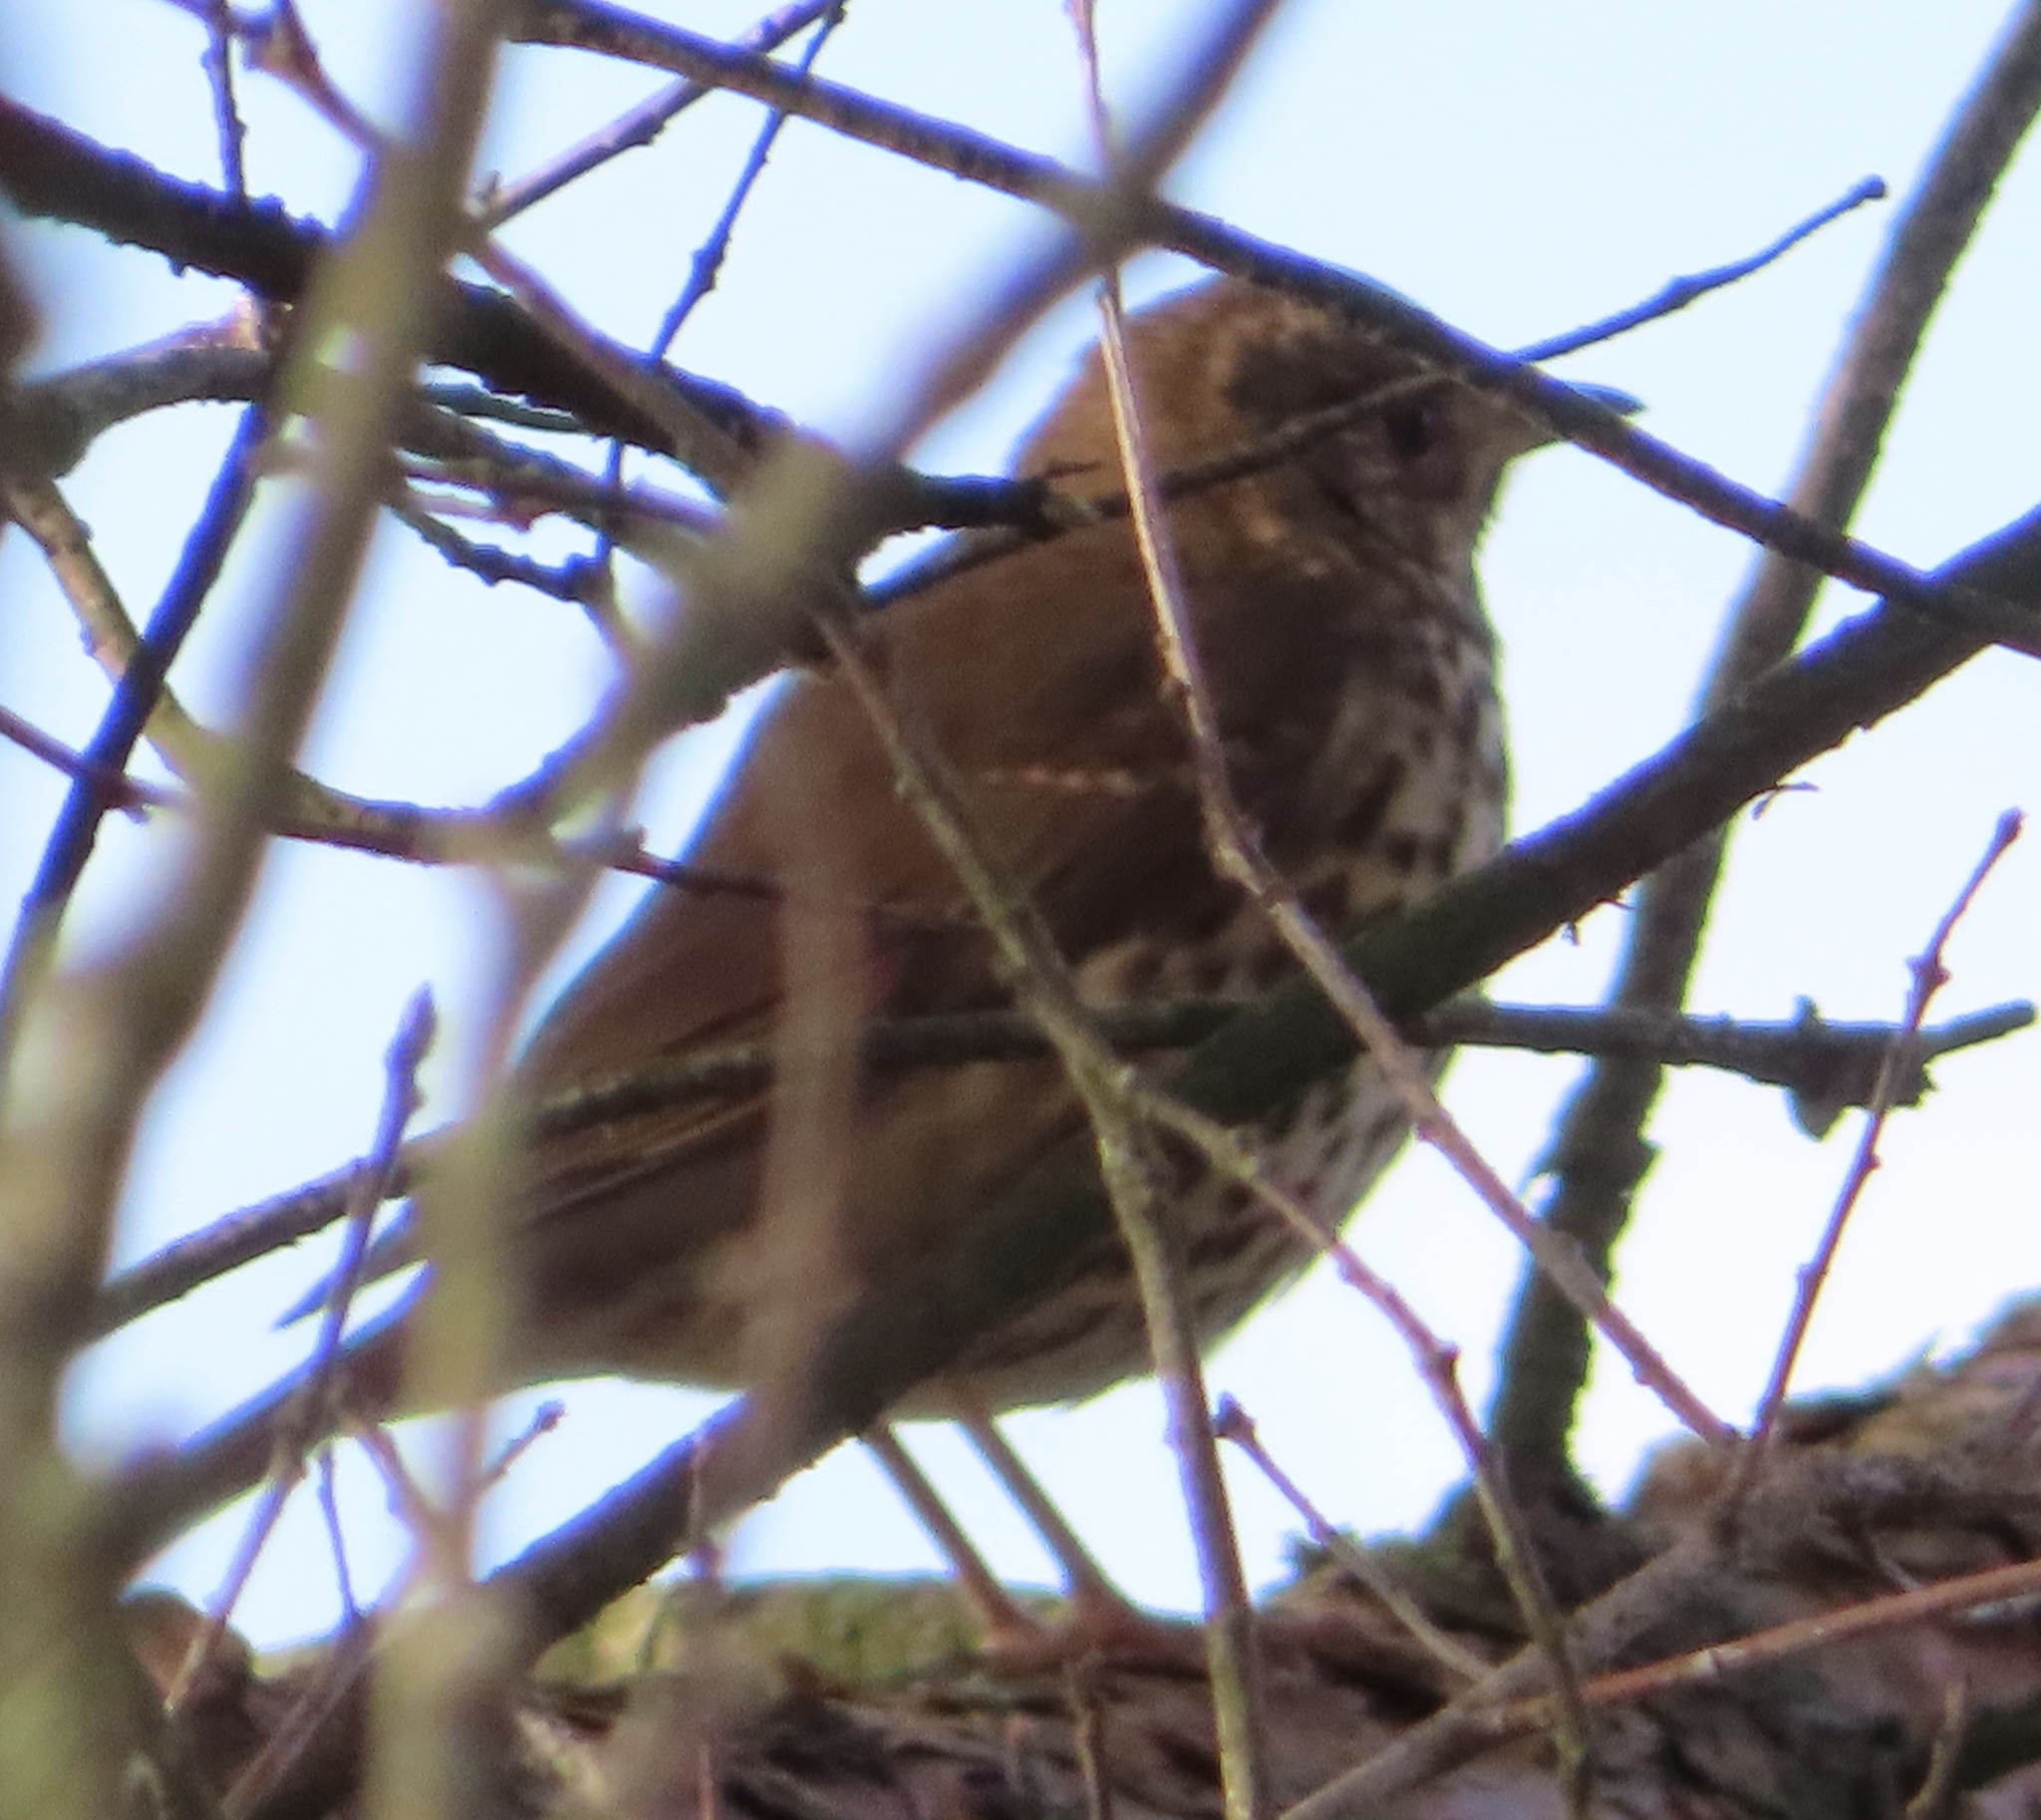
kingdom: Animalia
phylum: Chordata
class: Aves
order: Passeriformes
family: Turdidae
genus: Turdus
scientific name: Turdus philomelos
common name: Song thrush
